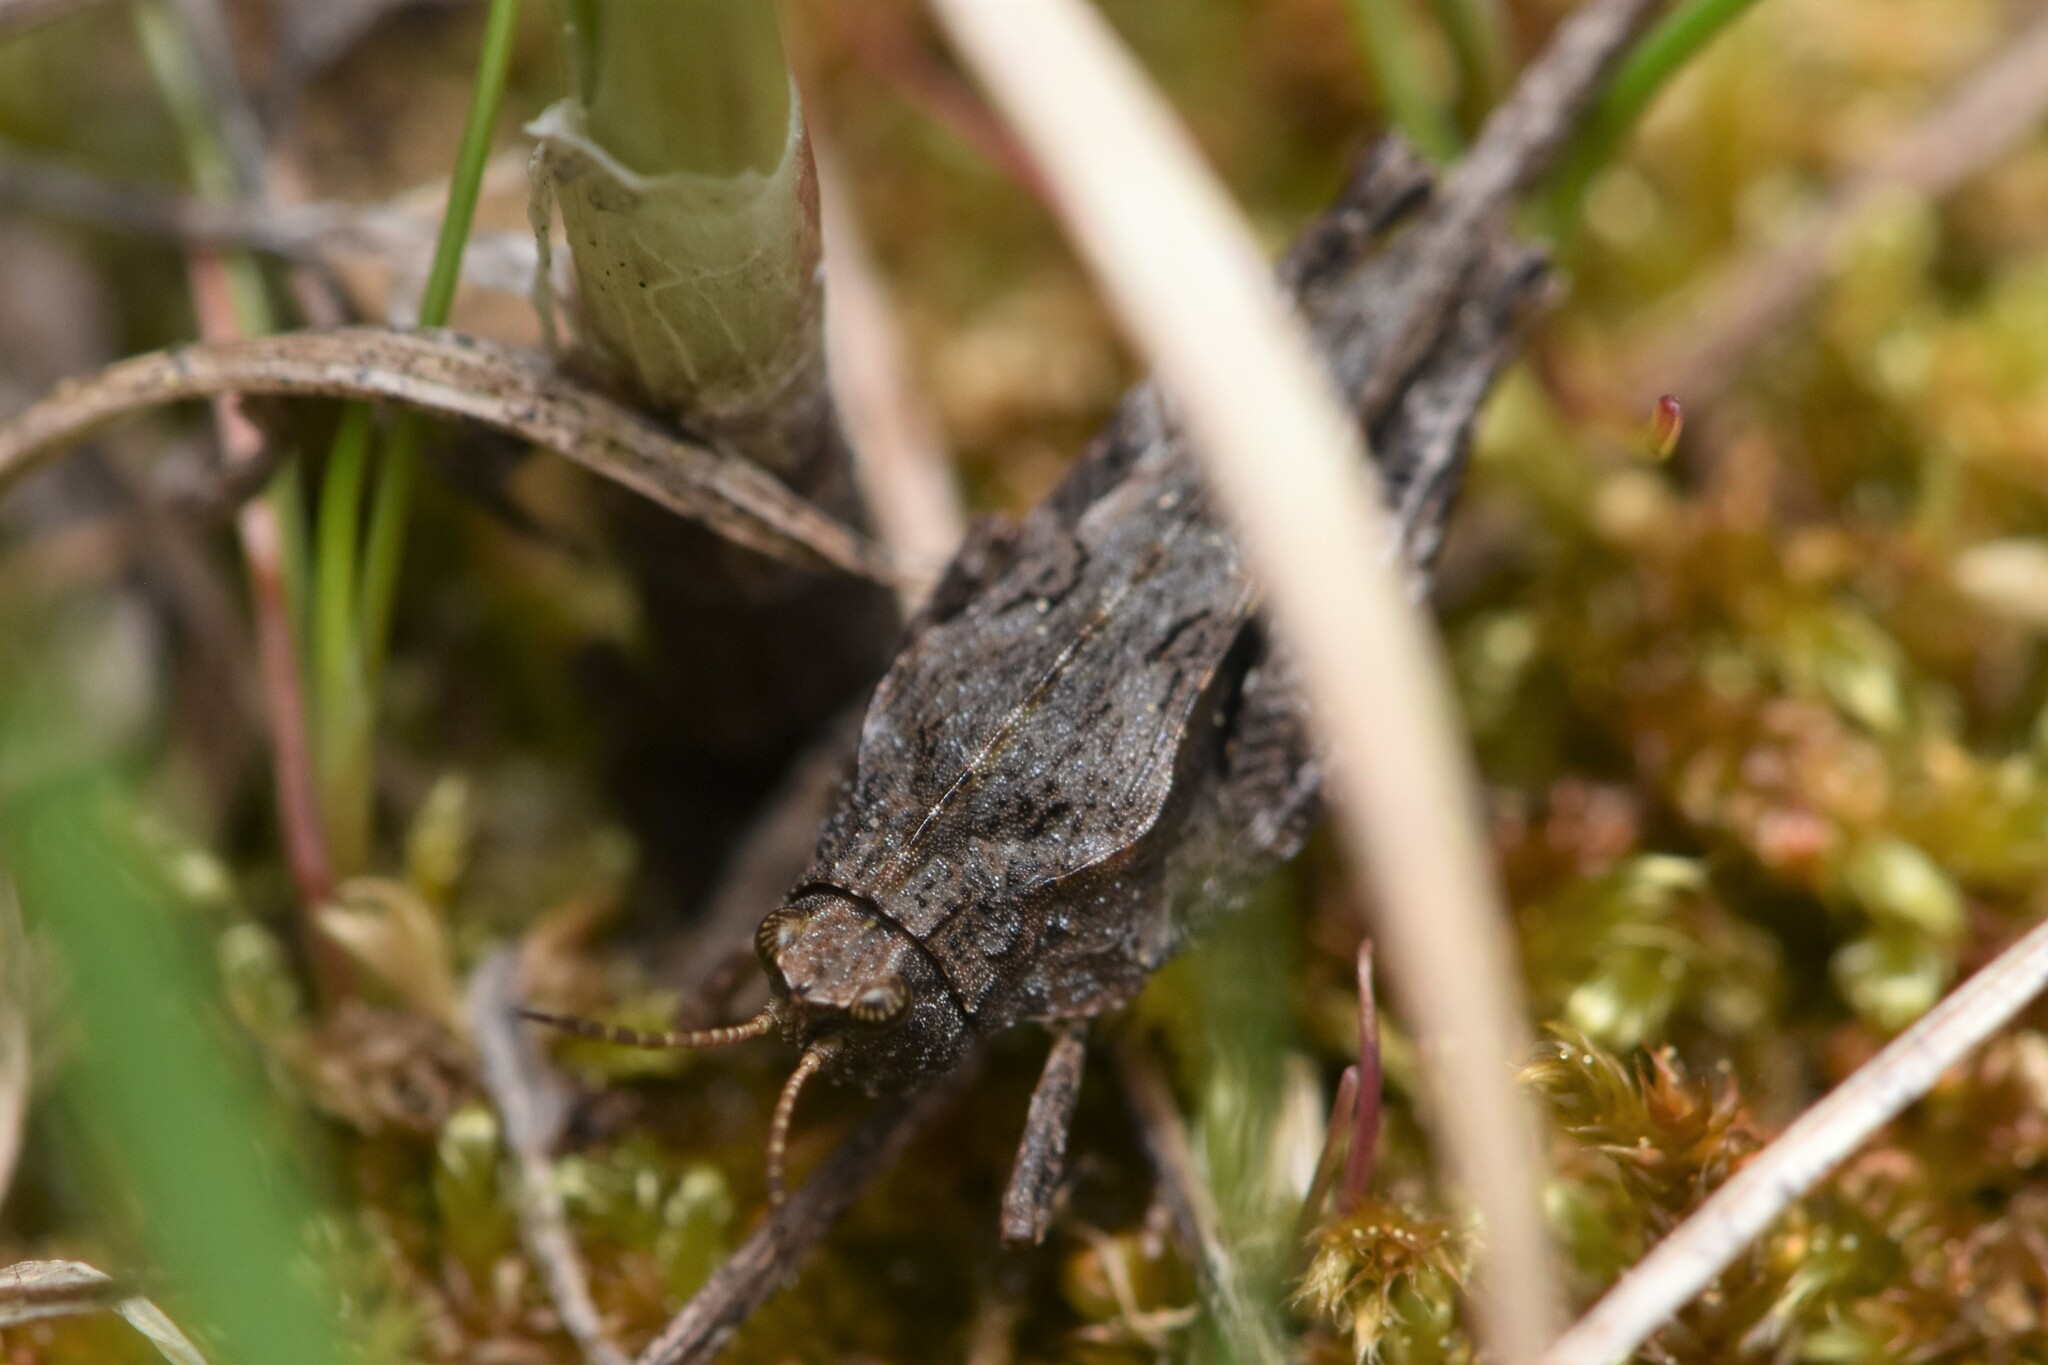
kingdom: Animalia
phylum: Arthropoda
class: Insecta
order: Orthoptera
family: Tetrigidae
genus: Tetrix
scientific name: Tetrix subulata
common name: Slender ground-hopper
